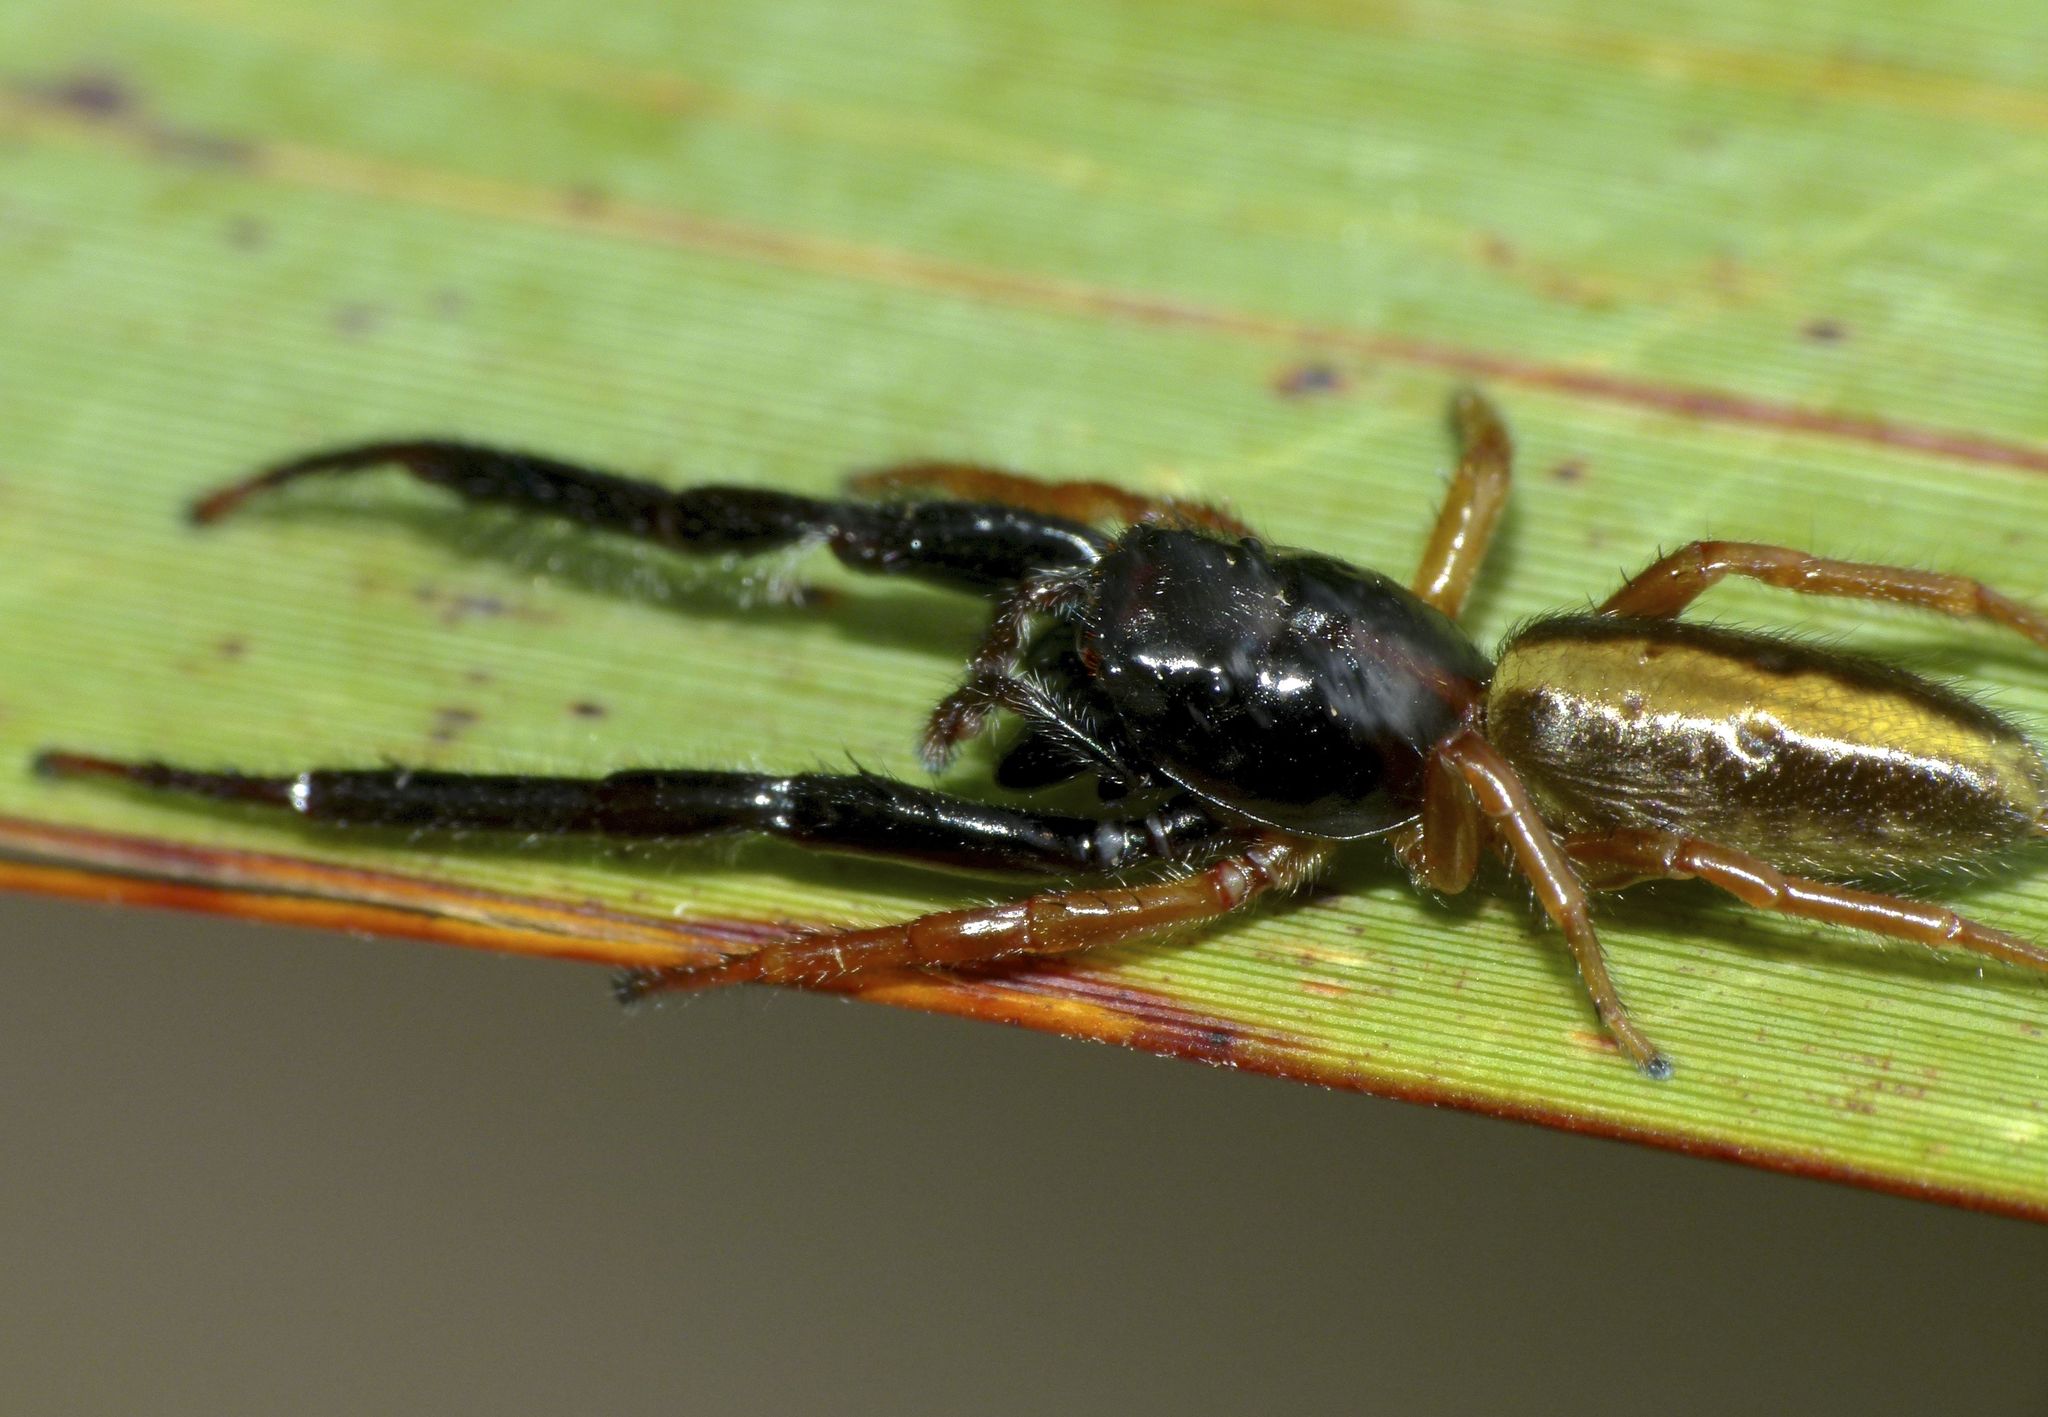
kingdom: Animalia
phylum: Arthropoda
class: Arachnida
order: Araneae
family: Salticidae
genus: Trite
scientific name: Trite planiceps
